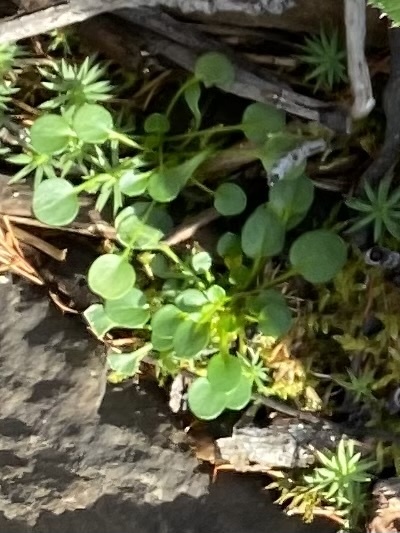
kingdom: Plantae
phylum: Tracheophyta
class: Magnoliopsida
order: Brassicales
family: Brassicaceae
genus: Cardamine
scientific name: Cardamine bellidifolia
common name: Alpine bittercress
